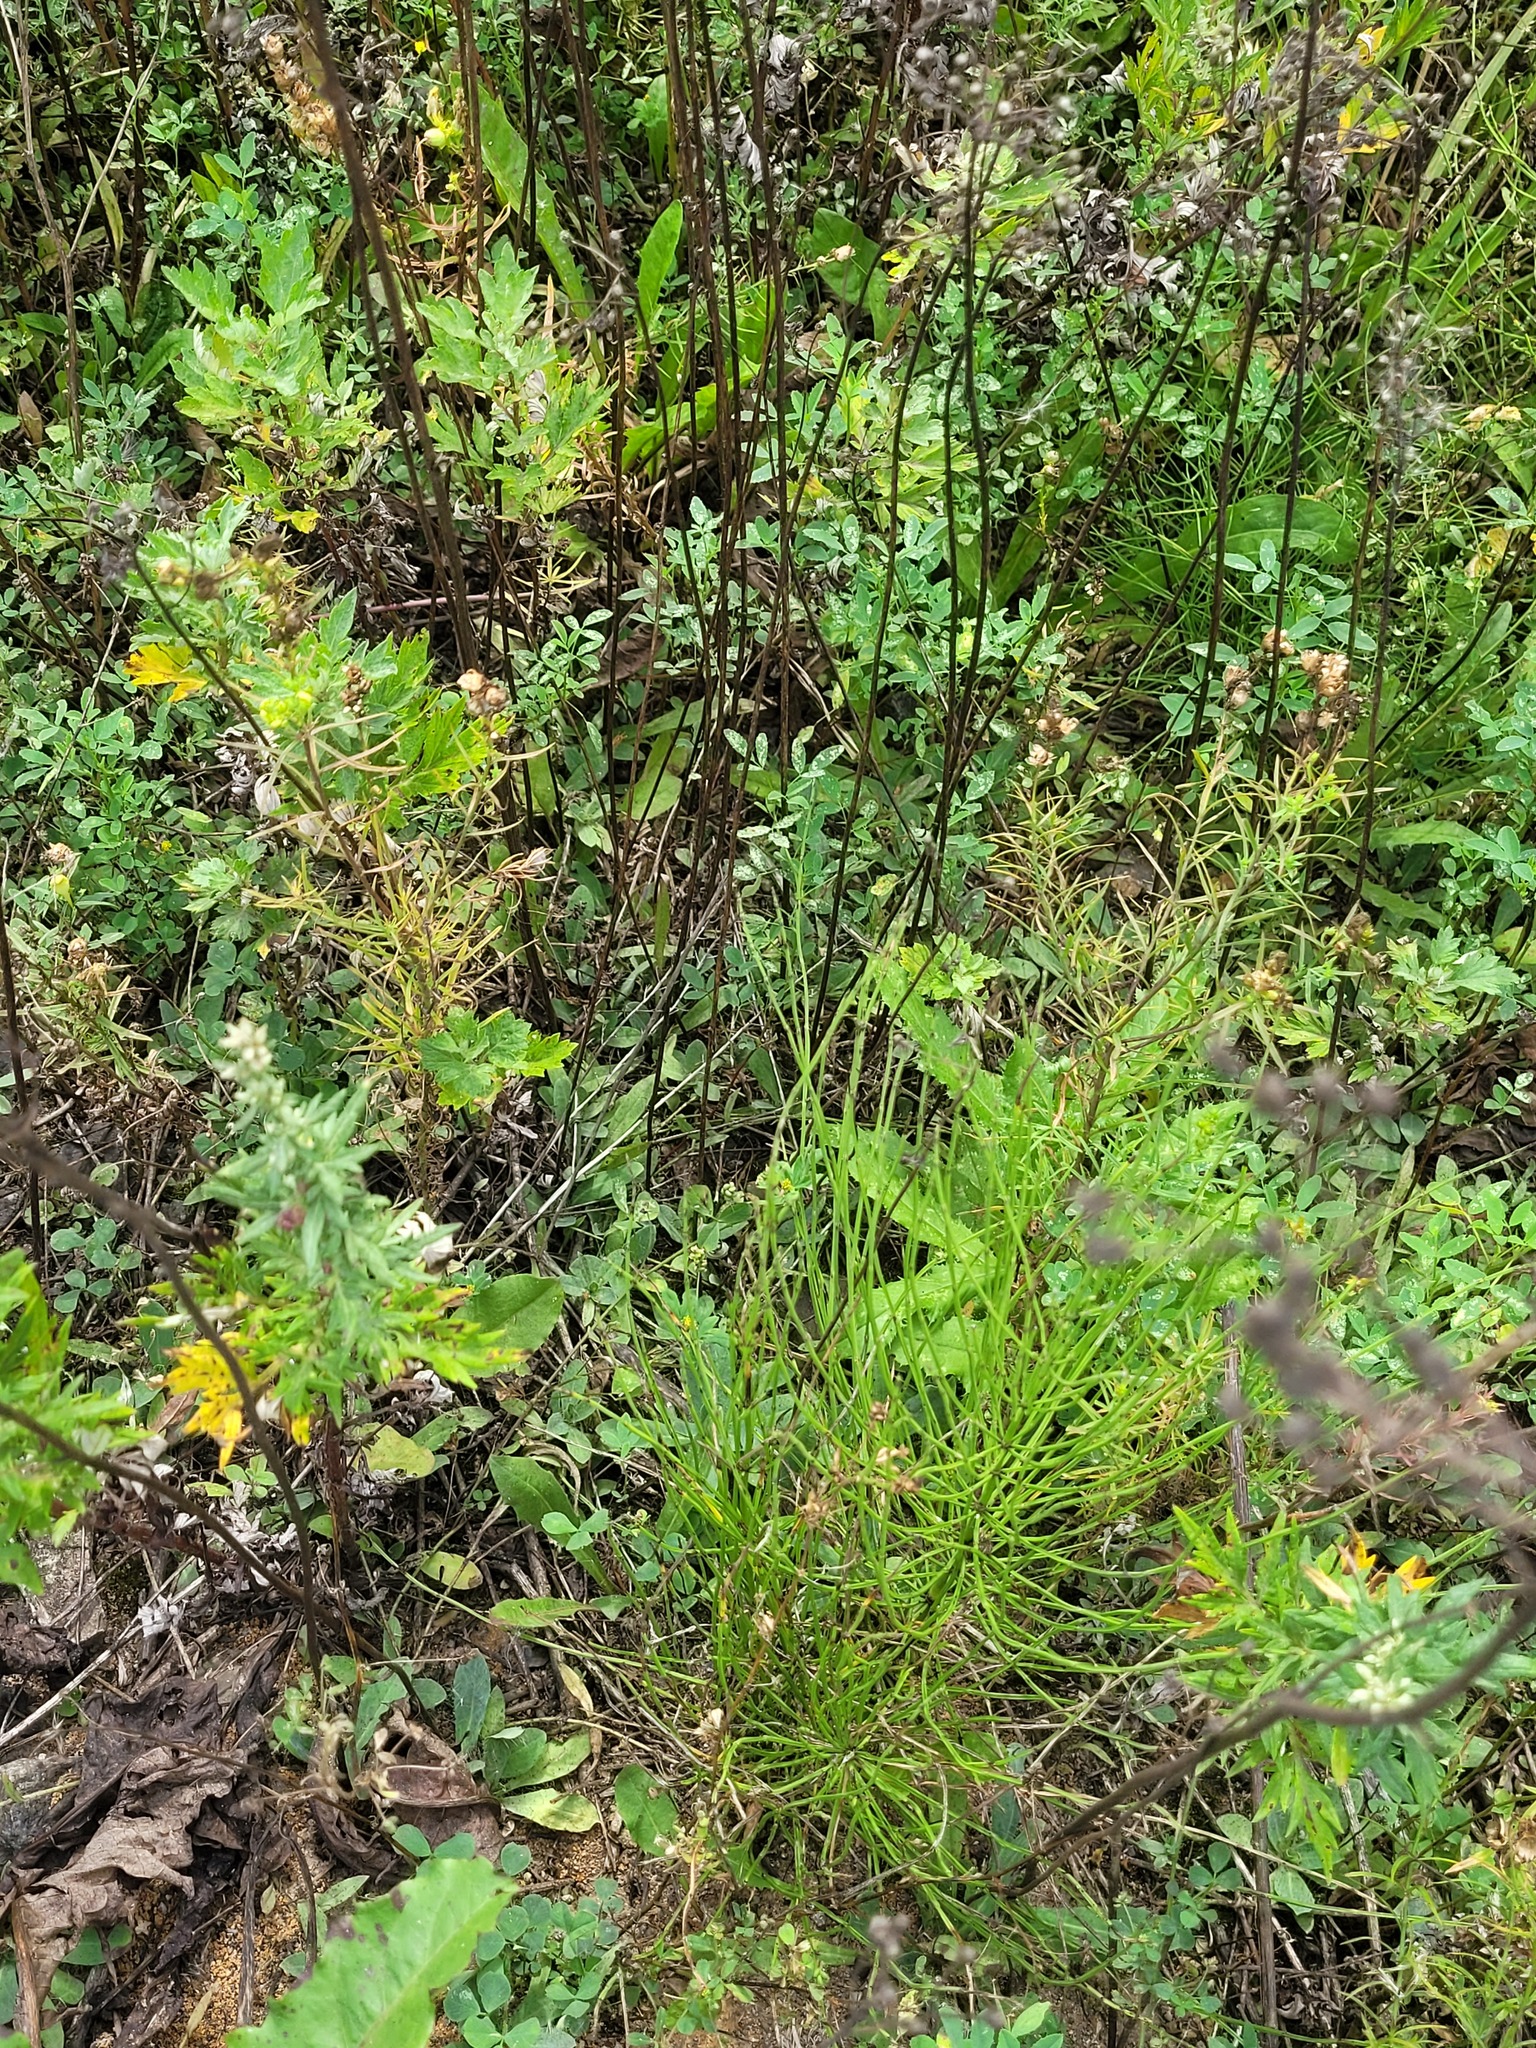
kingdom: Plantae
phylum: Tracheophyta
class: Magnoliopsida
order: Fabales
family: Fabaceae
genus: Medicago
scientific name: Medicago lupulina
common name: Black medick
